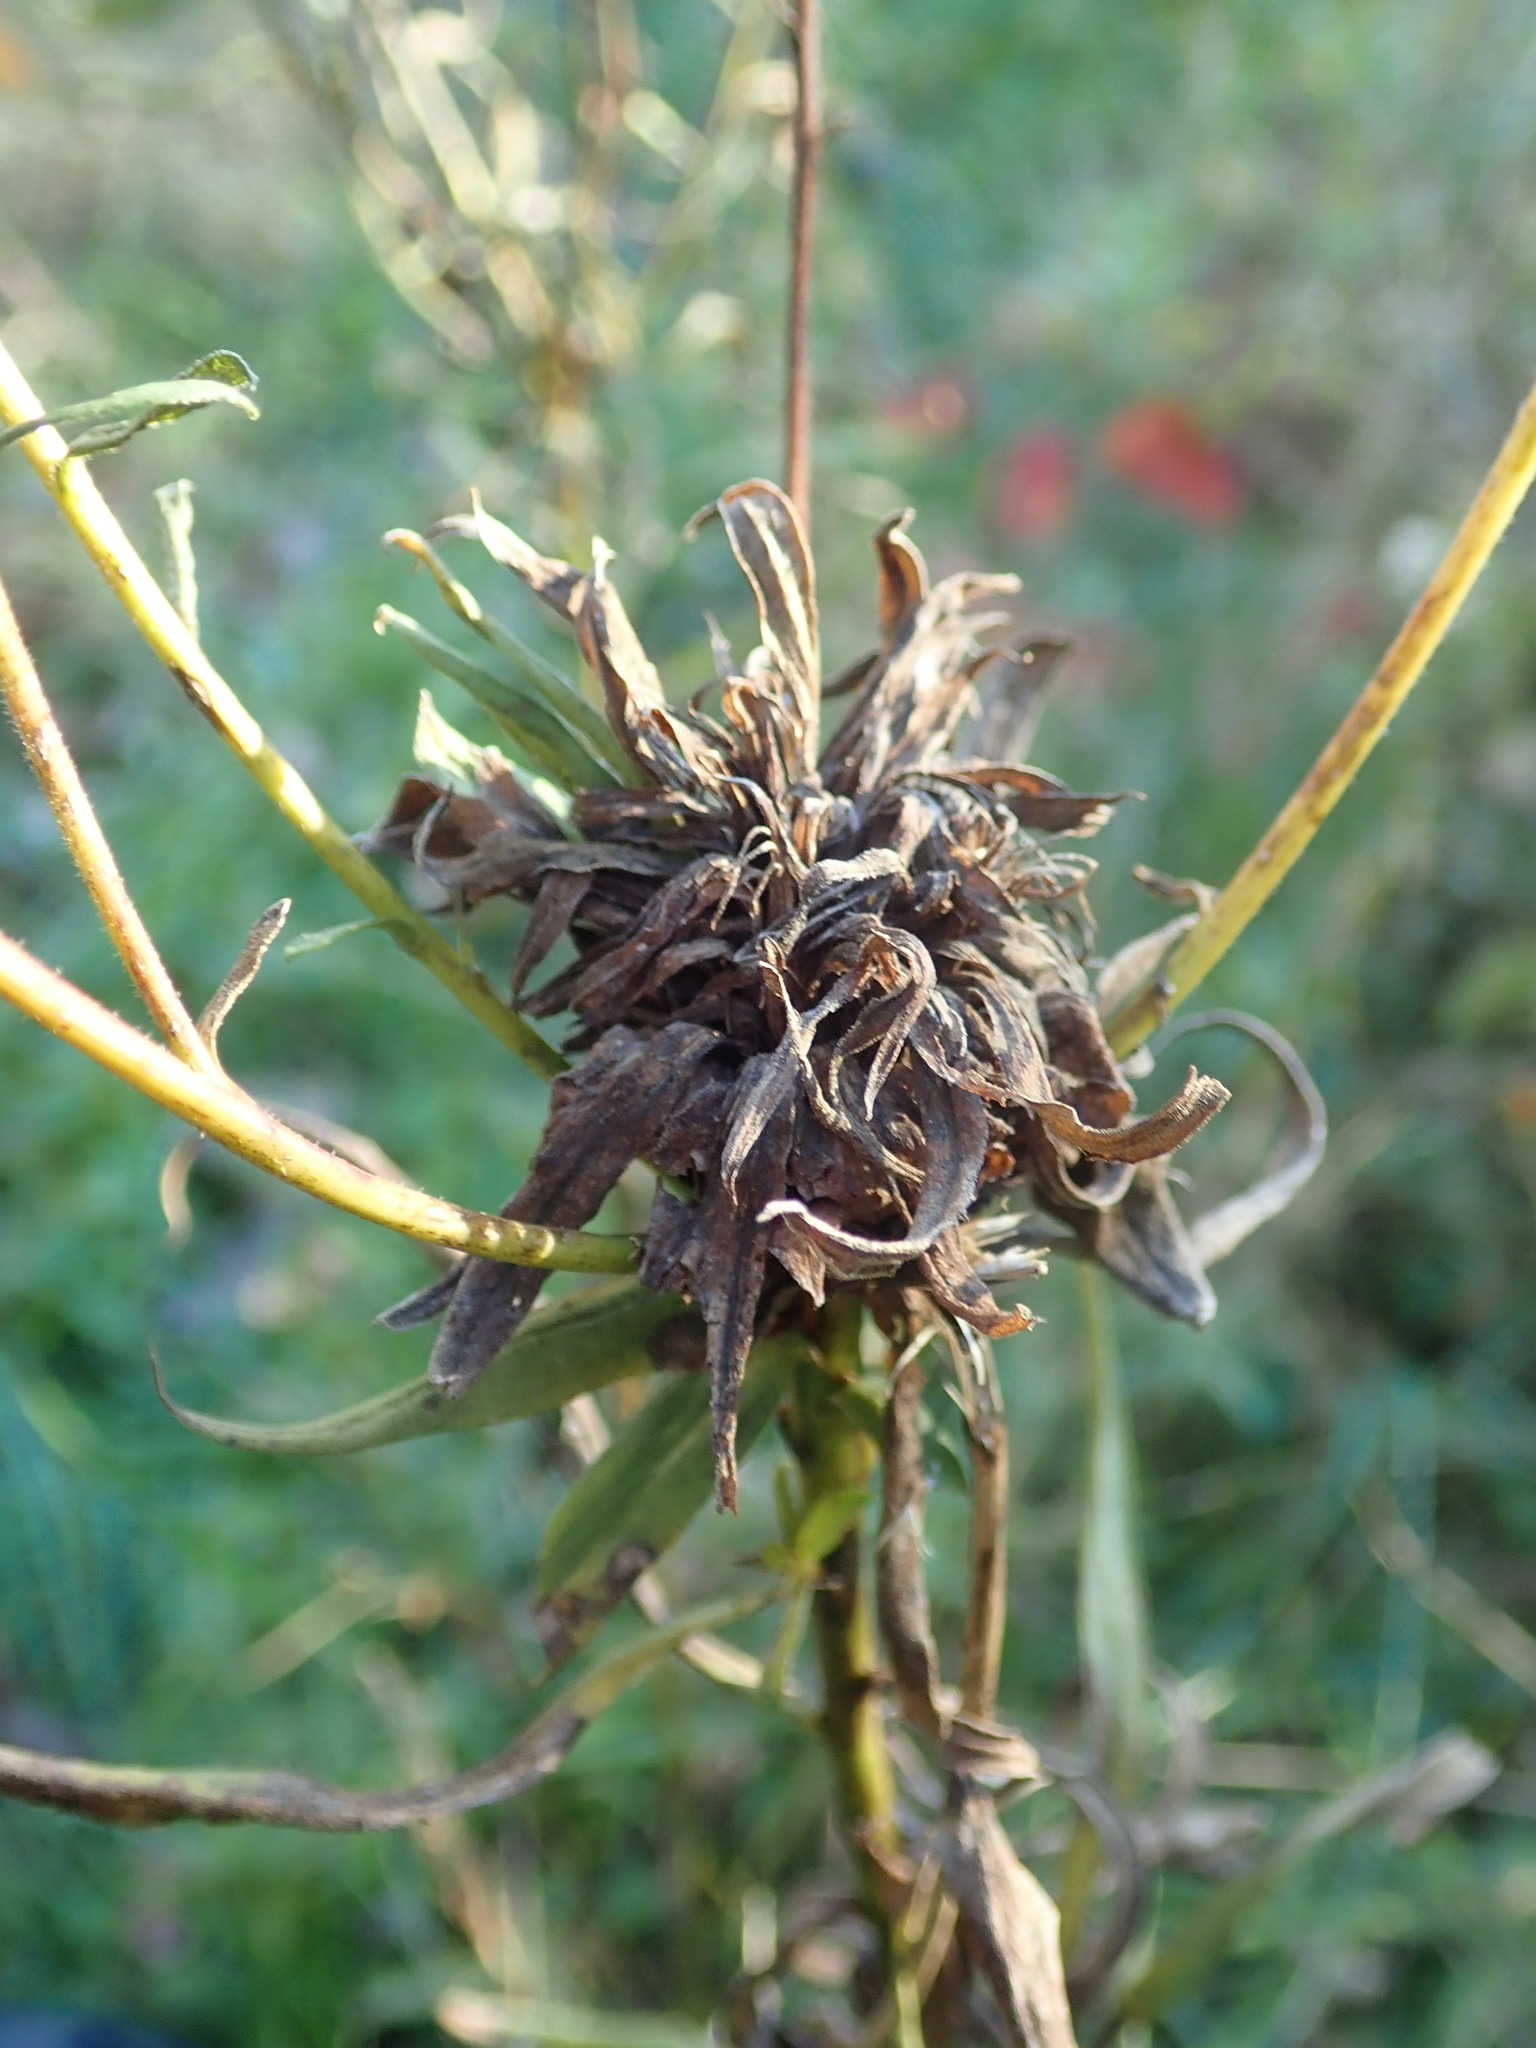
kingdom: Animalia
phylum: Arthropoda
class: Insecta
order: Diptera
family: Cecidomyiidae
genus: Rhopalomyia
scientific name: Rhopalomyia solidaginis
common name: Goldenrod bunch gall midge
